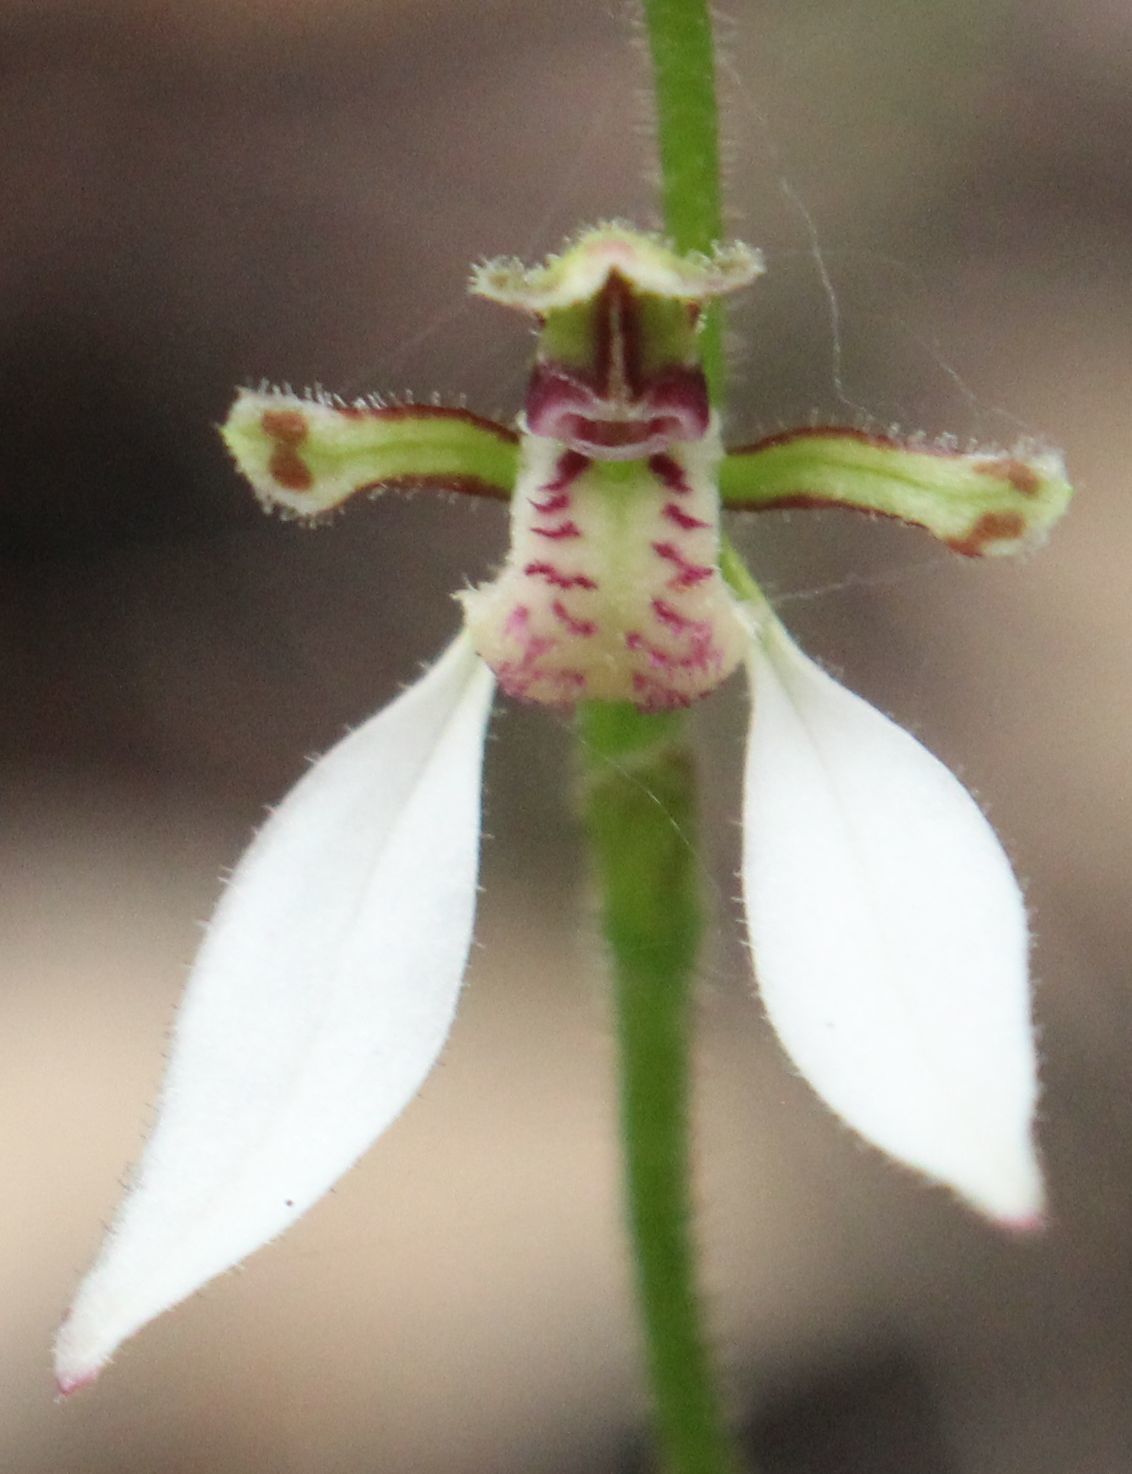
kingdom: Plantae
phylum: Tracheophyta
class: Liliopsida
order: Asparagales
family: Orchidaceae
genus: Eriochilus
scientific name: Eriochilus dilatatus
